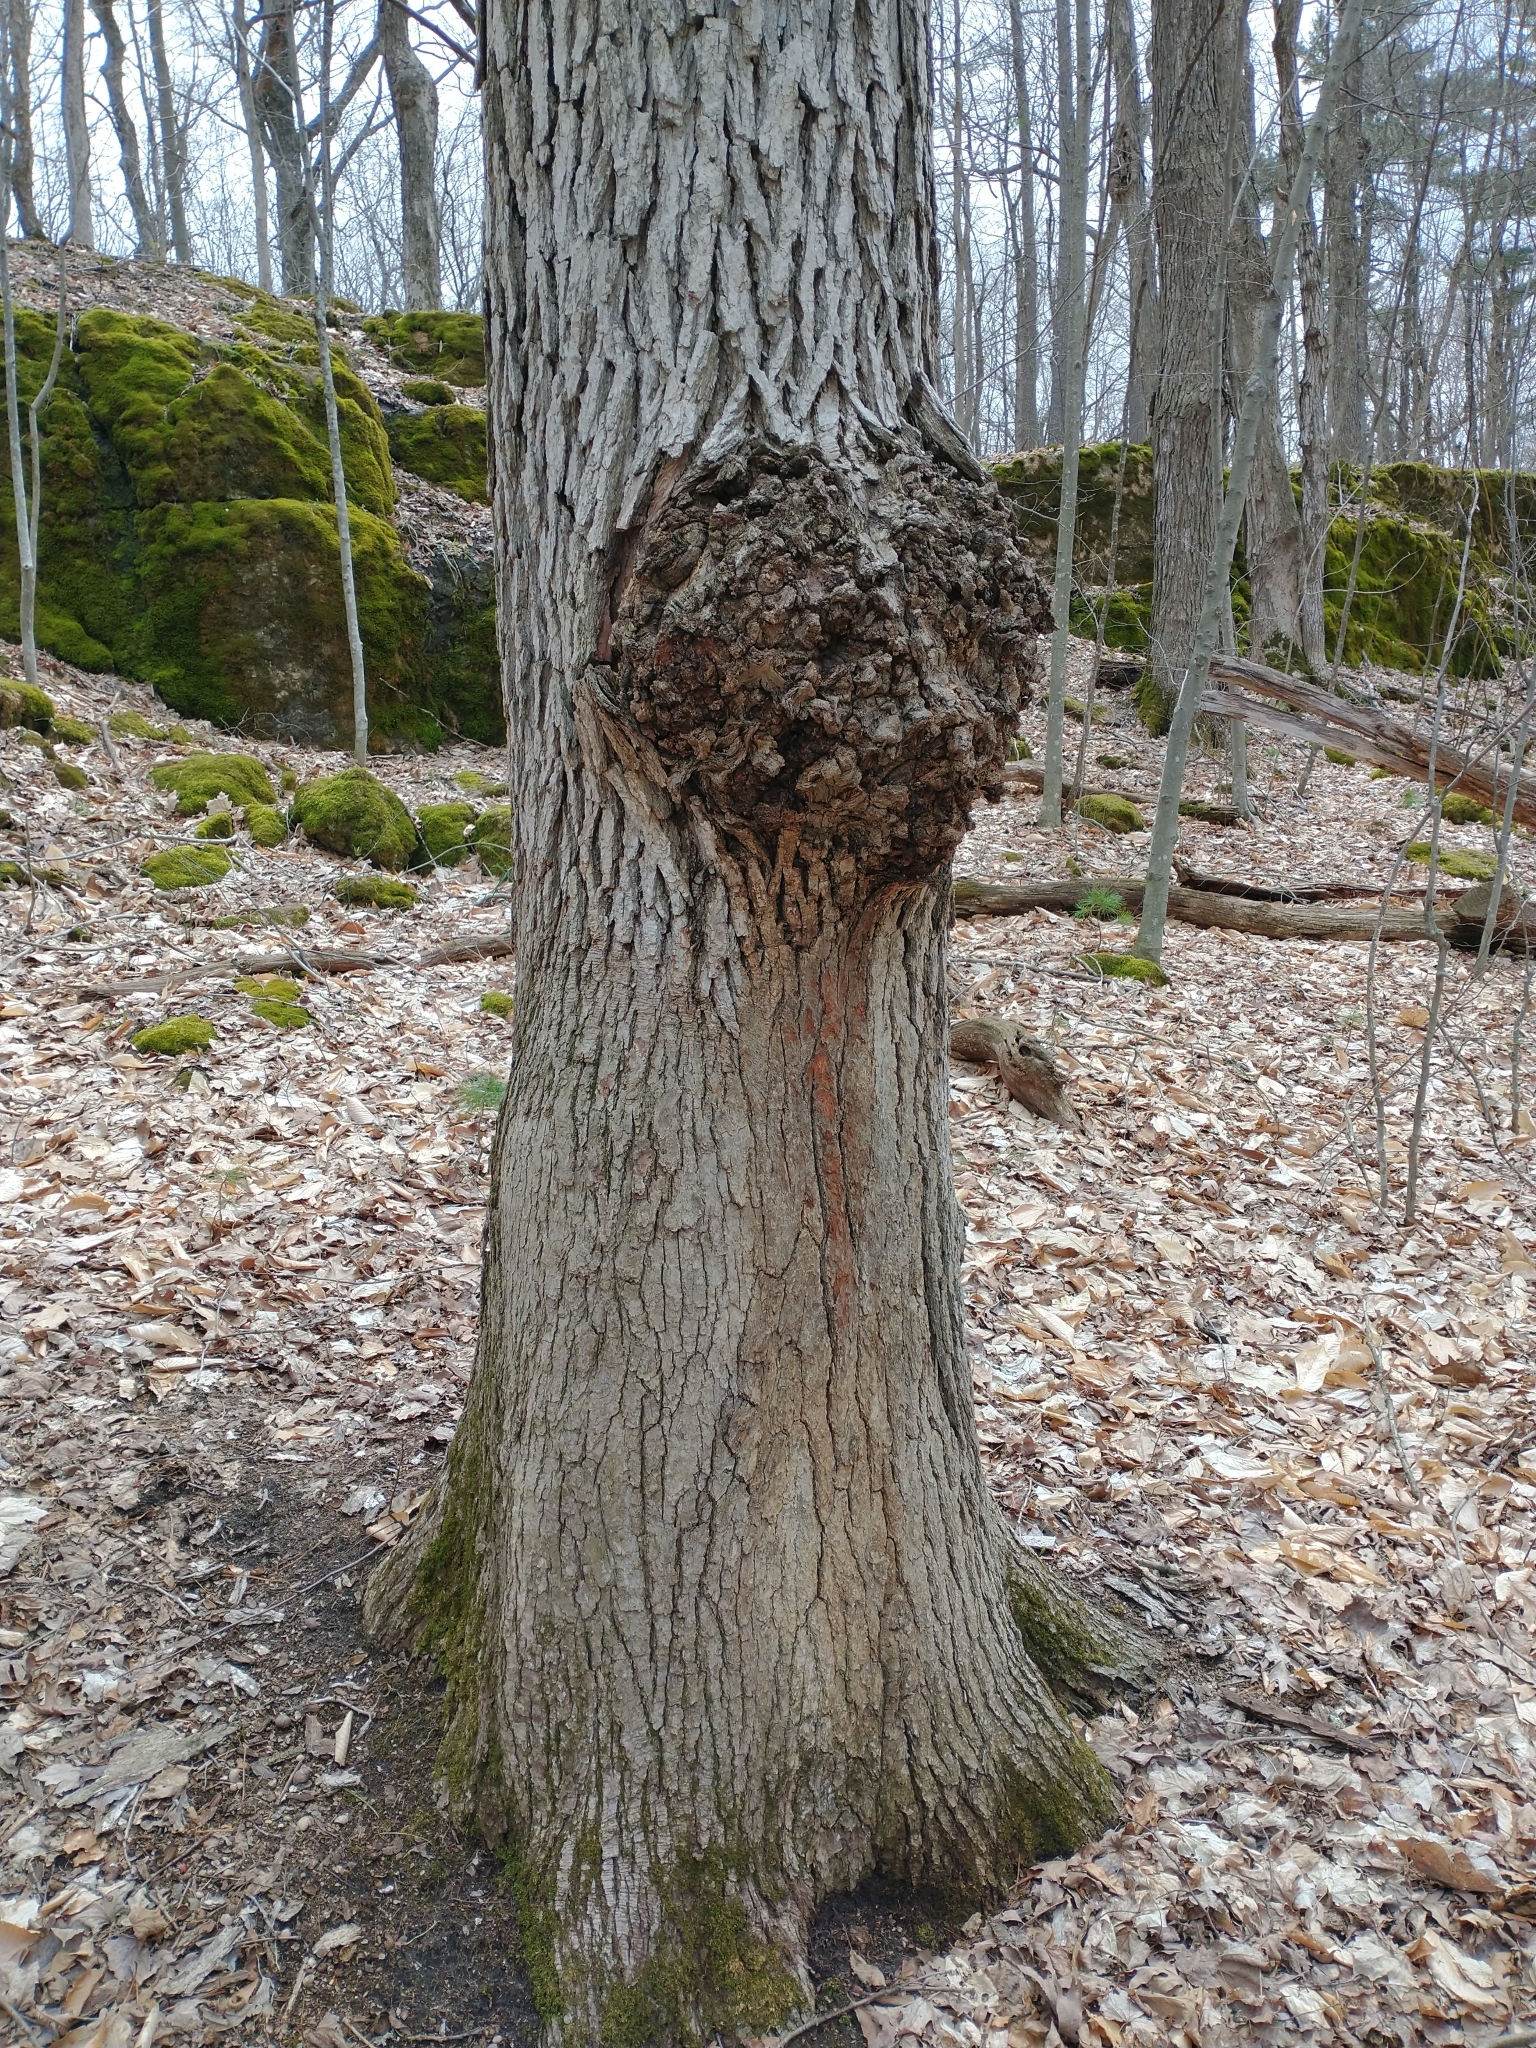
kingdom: Bacteria
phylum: Proteobacteria
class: Alphaproteobacteria
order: Rhizobiales
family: Rhizobiaceae
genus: Rhizobium
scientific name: Rhizobium Agrobacterium radiobacter
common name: Bacterial crown gall
